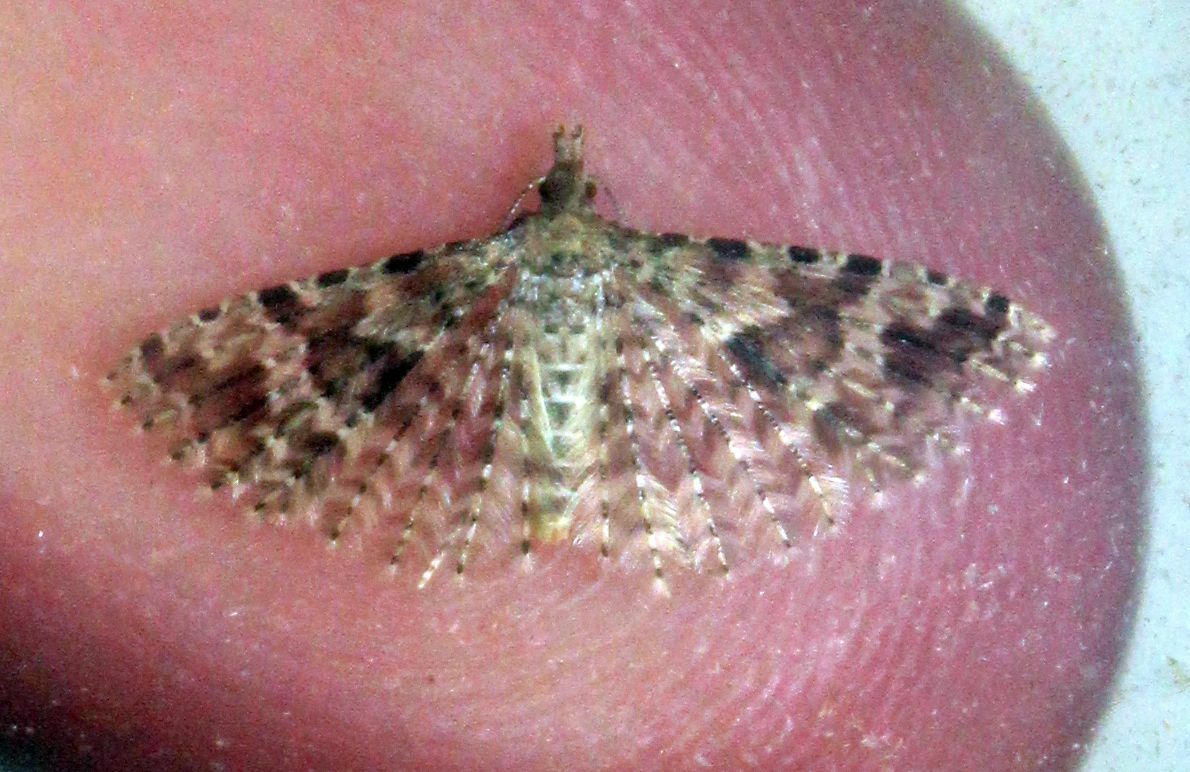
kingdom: Animalia
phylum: Arthropoda
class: Insecta
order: Lepidoptera
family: Alucitidae
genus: Alucita
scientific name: Alucita hexadactyla
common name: Twenty-plume moth
